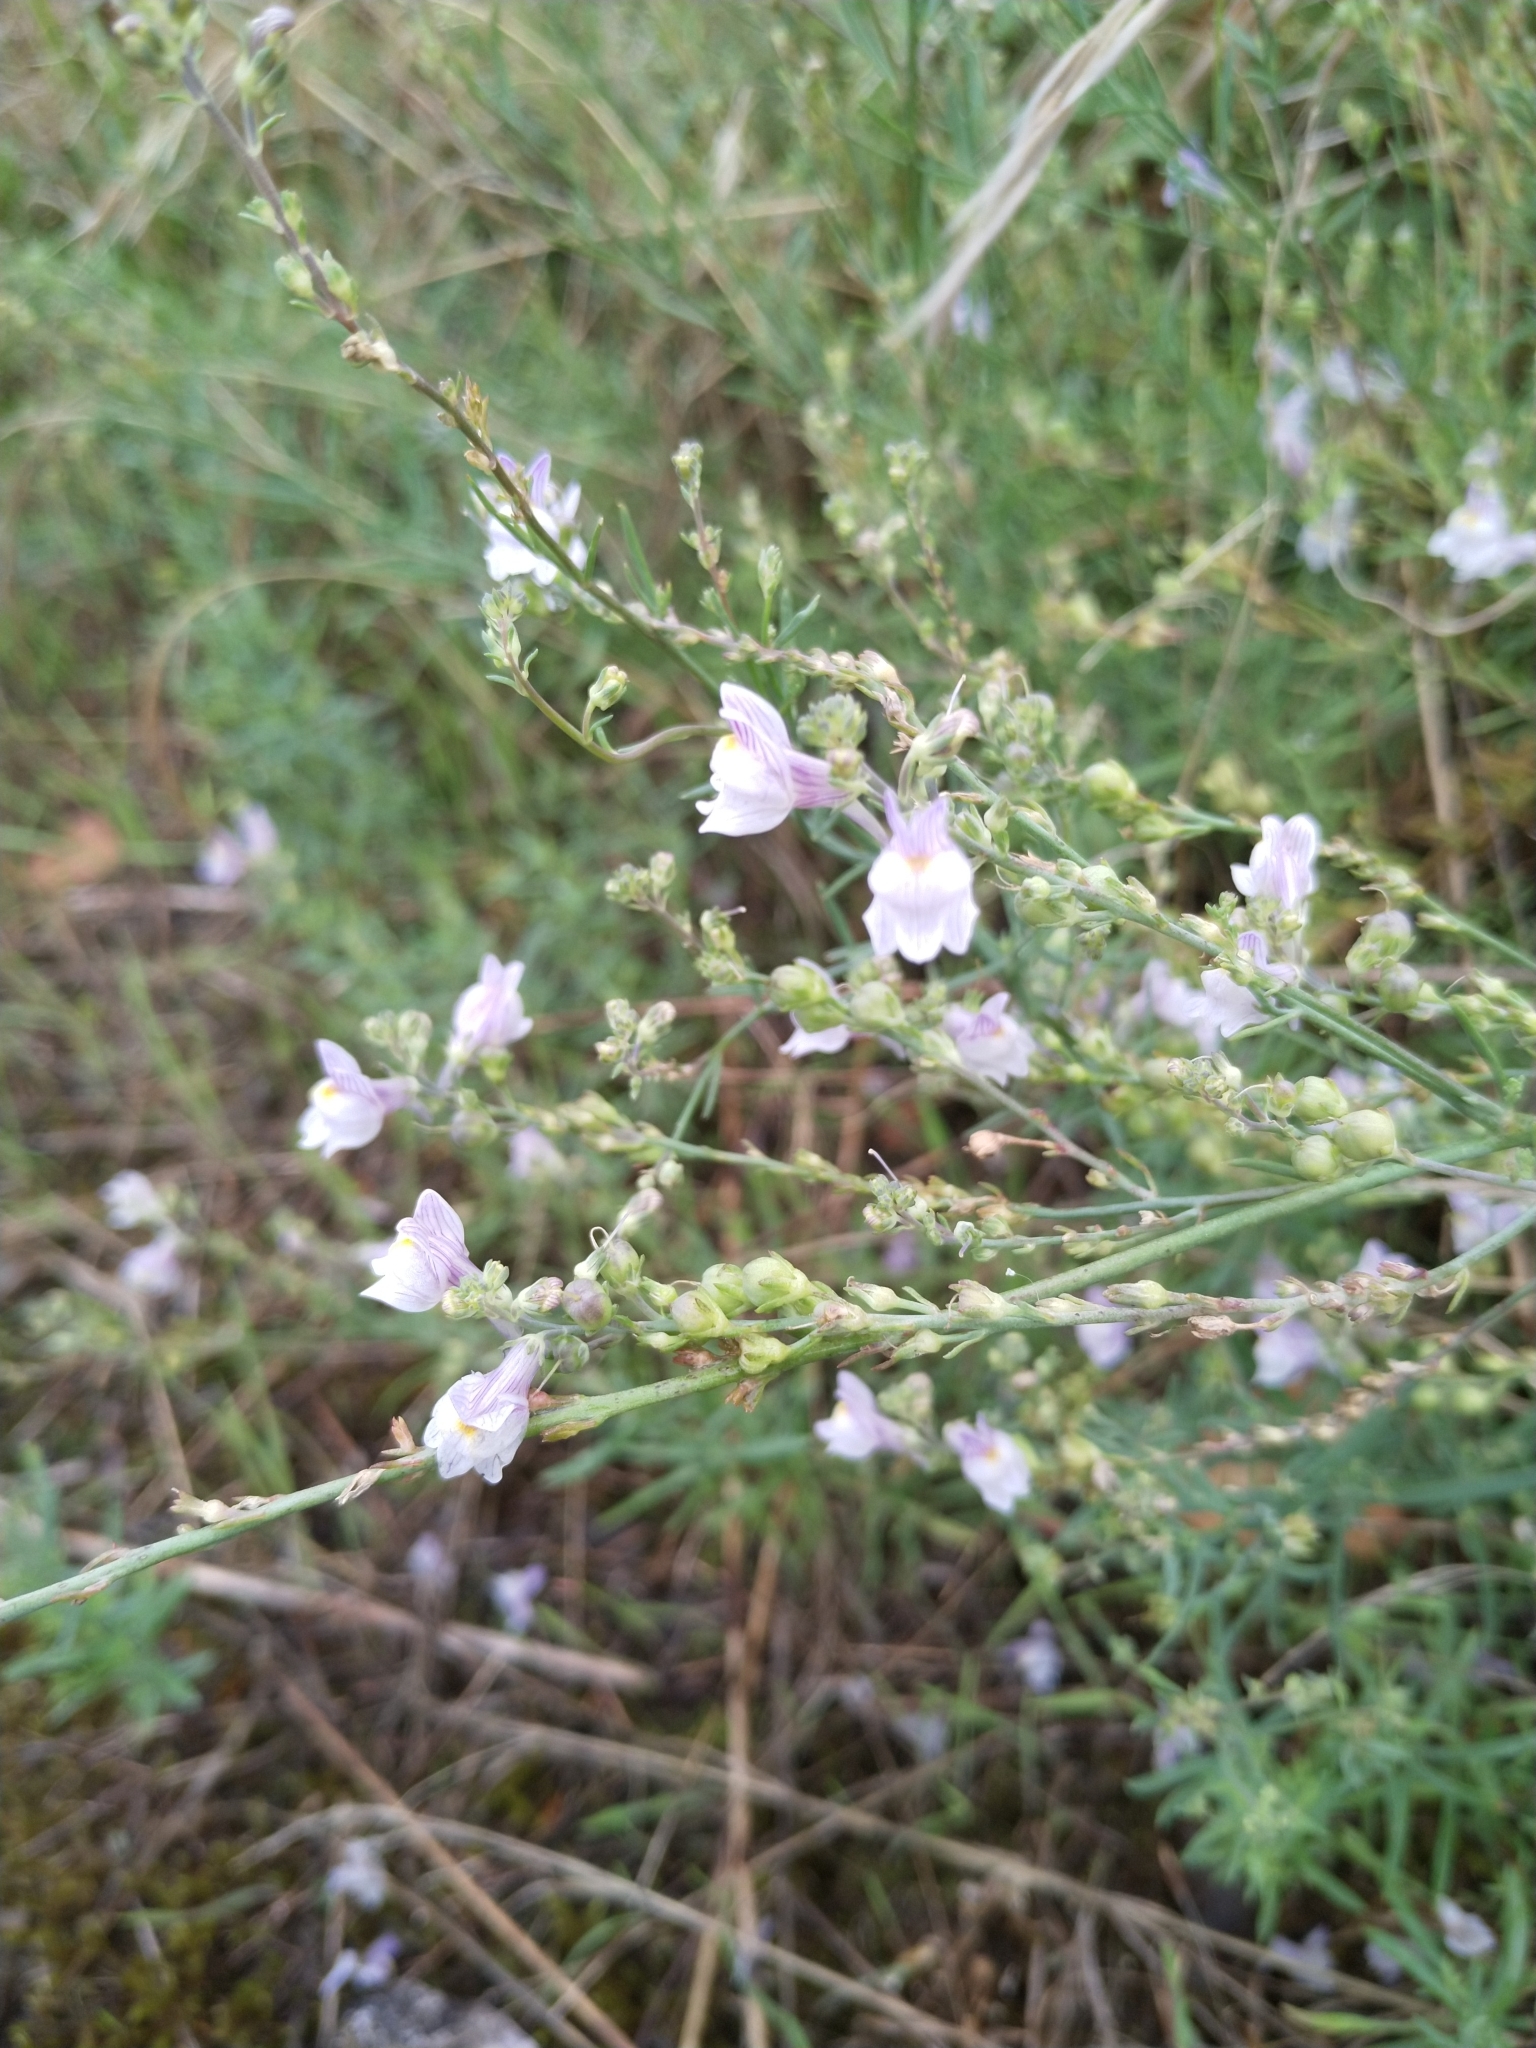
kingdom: Plantae
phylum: Tracheophyta
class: Magnoliopsida
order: Lamiales
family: Plantaginaceae
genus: Linaria
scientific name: Linaria repens
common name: Pale toadflax
